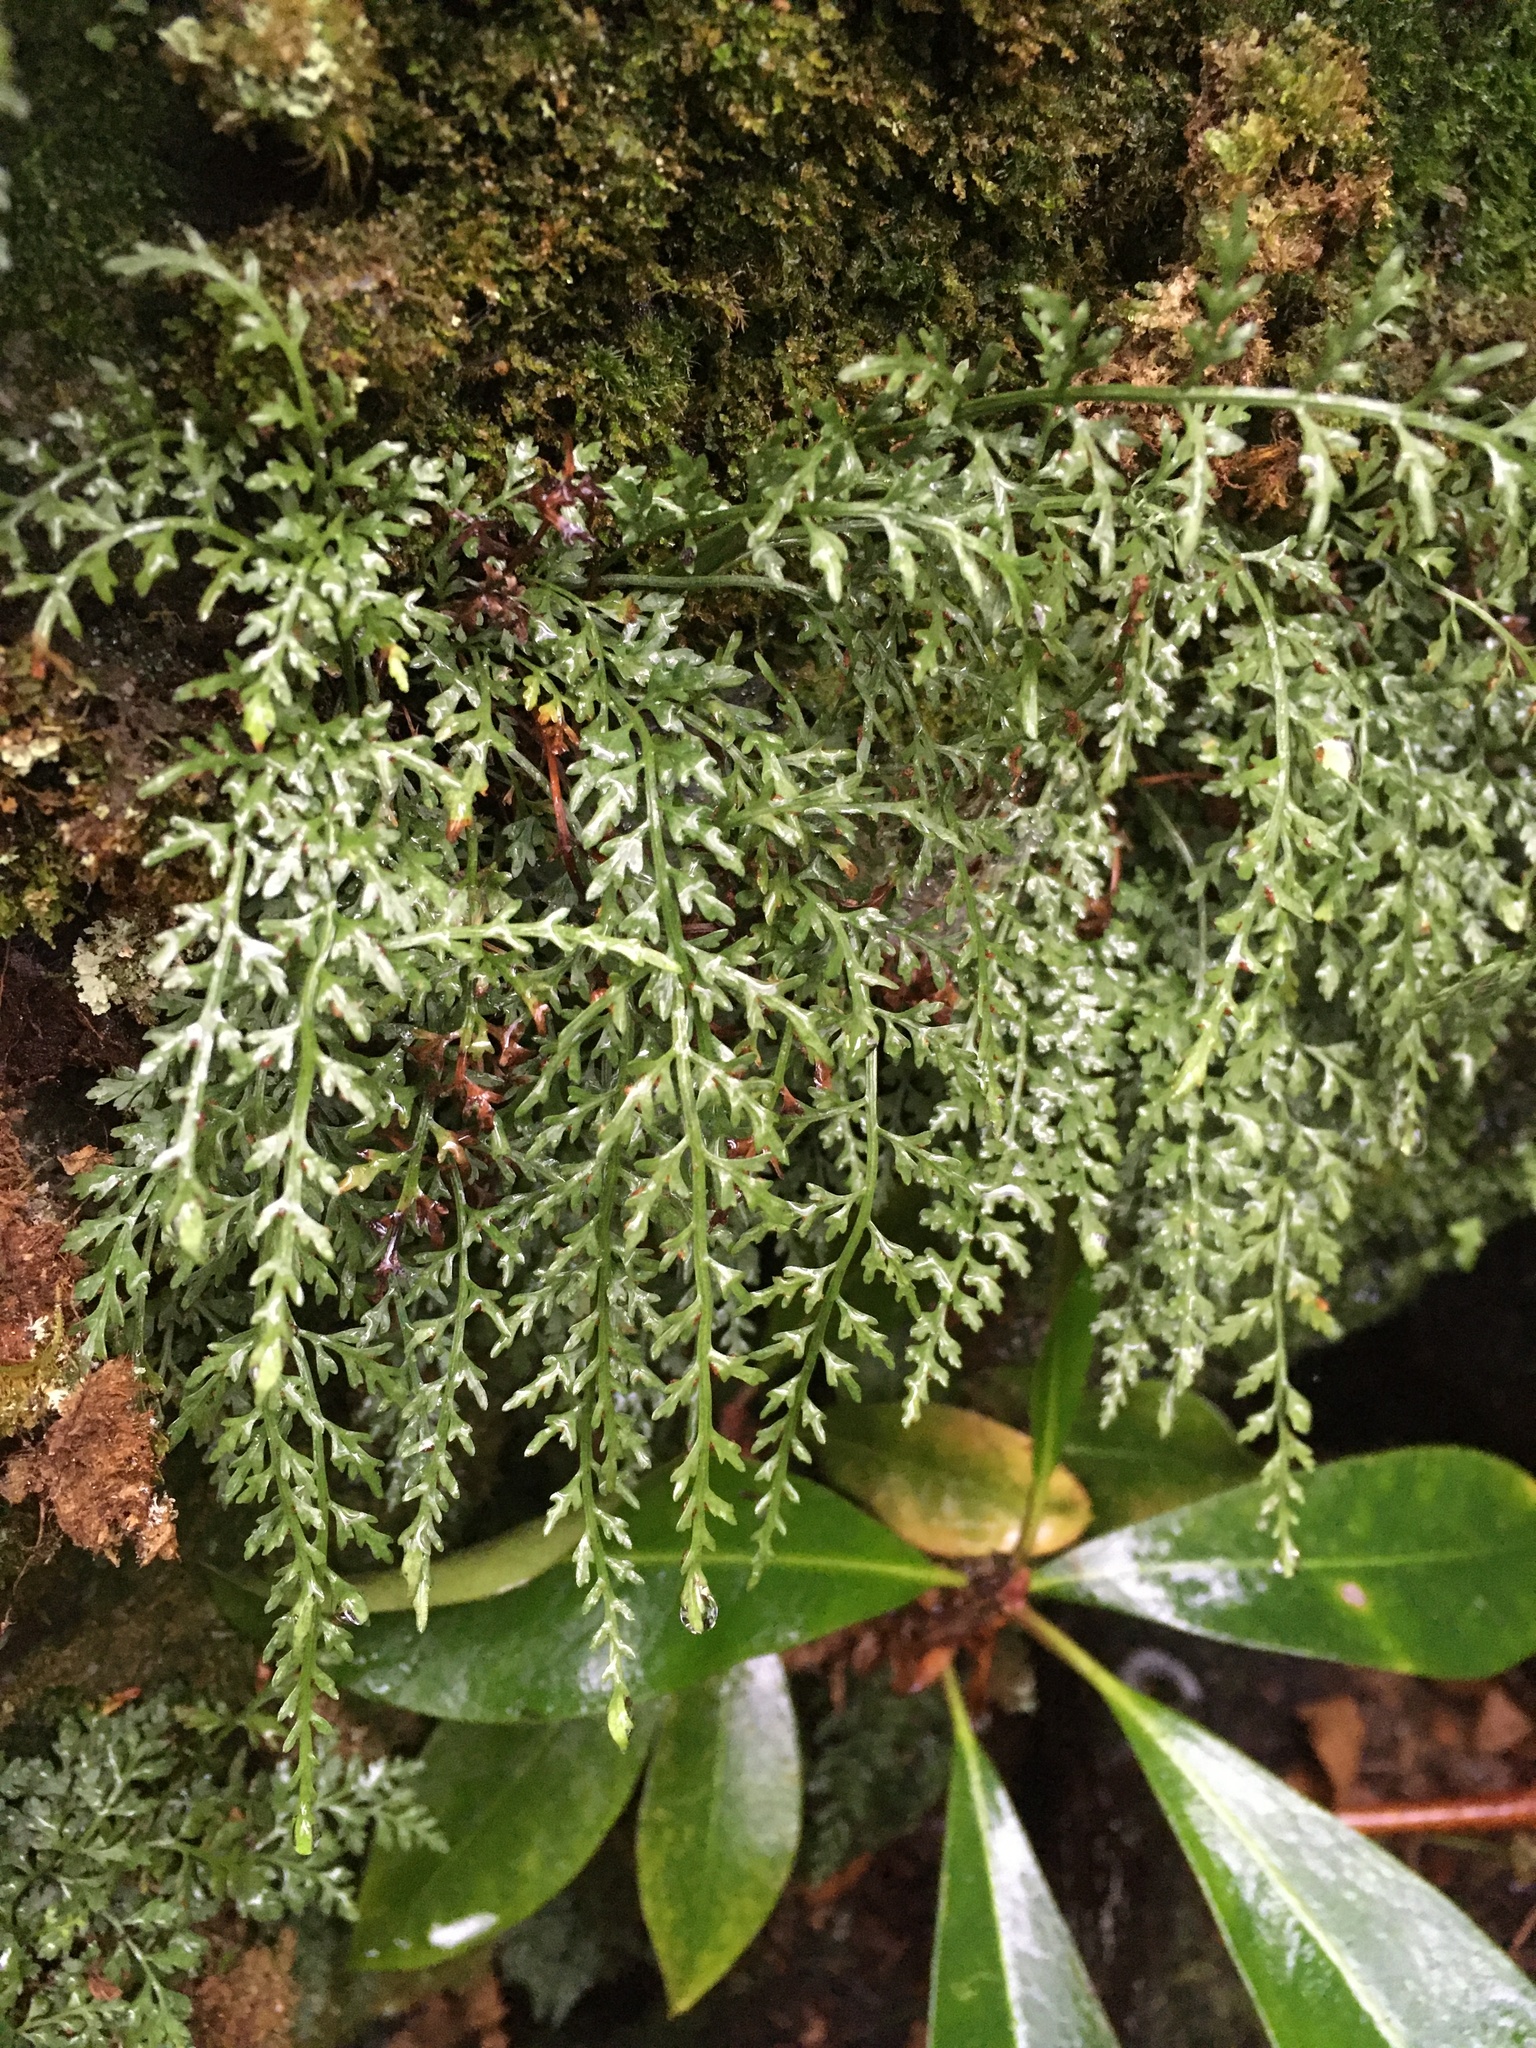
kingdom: Plantae
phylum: Tracheophyta
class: Polypodiopsida
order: Polypodiales
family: Aspleniaceae
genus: Asplenium
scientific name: Asplenium montanum
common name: Mountain spleenwort
